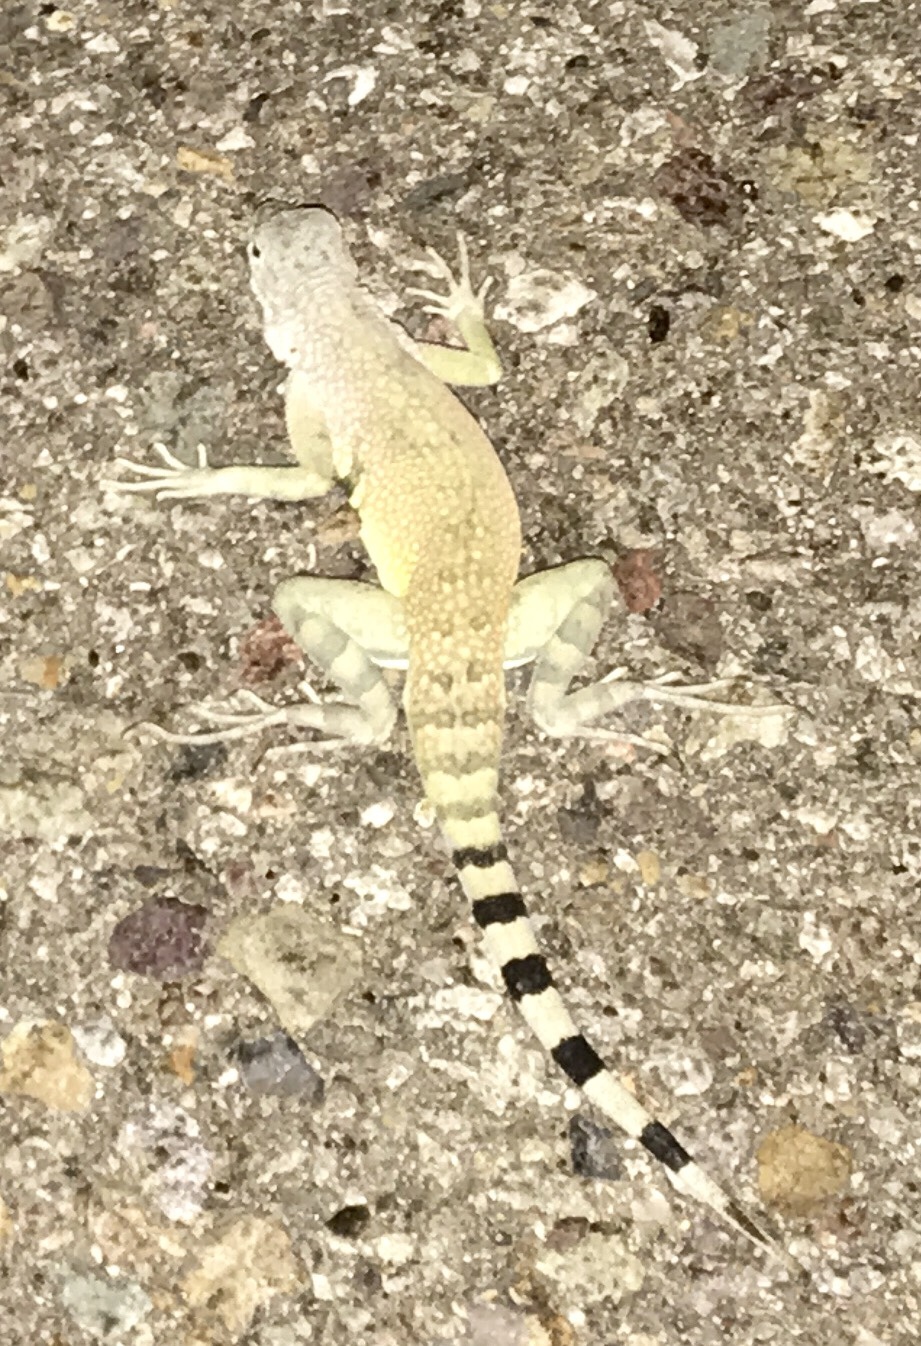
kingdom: Animalia
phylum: Chordata
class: Squamata
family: Phrynosomatidae
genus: Callisaurus
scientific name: Callisaurus draconoides
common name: Zebra-tailed lizard
